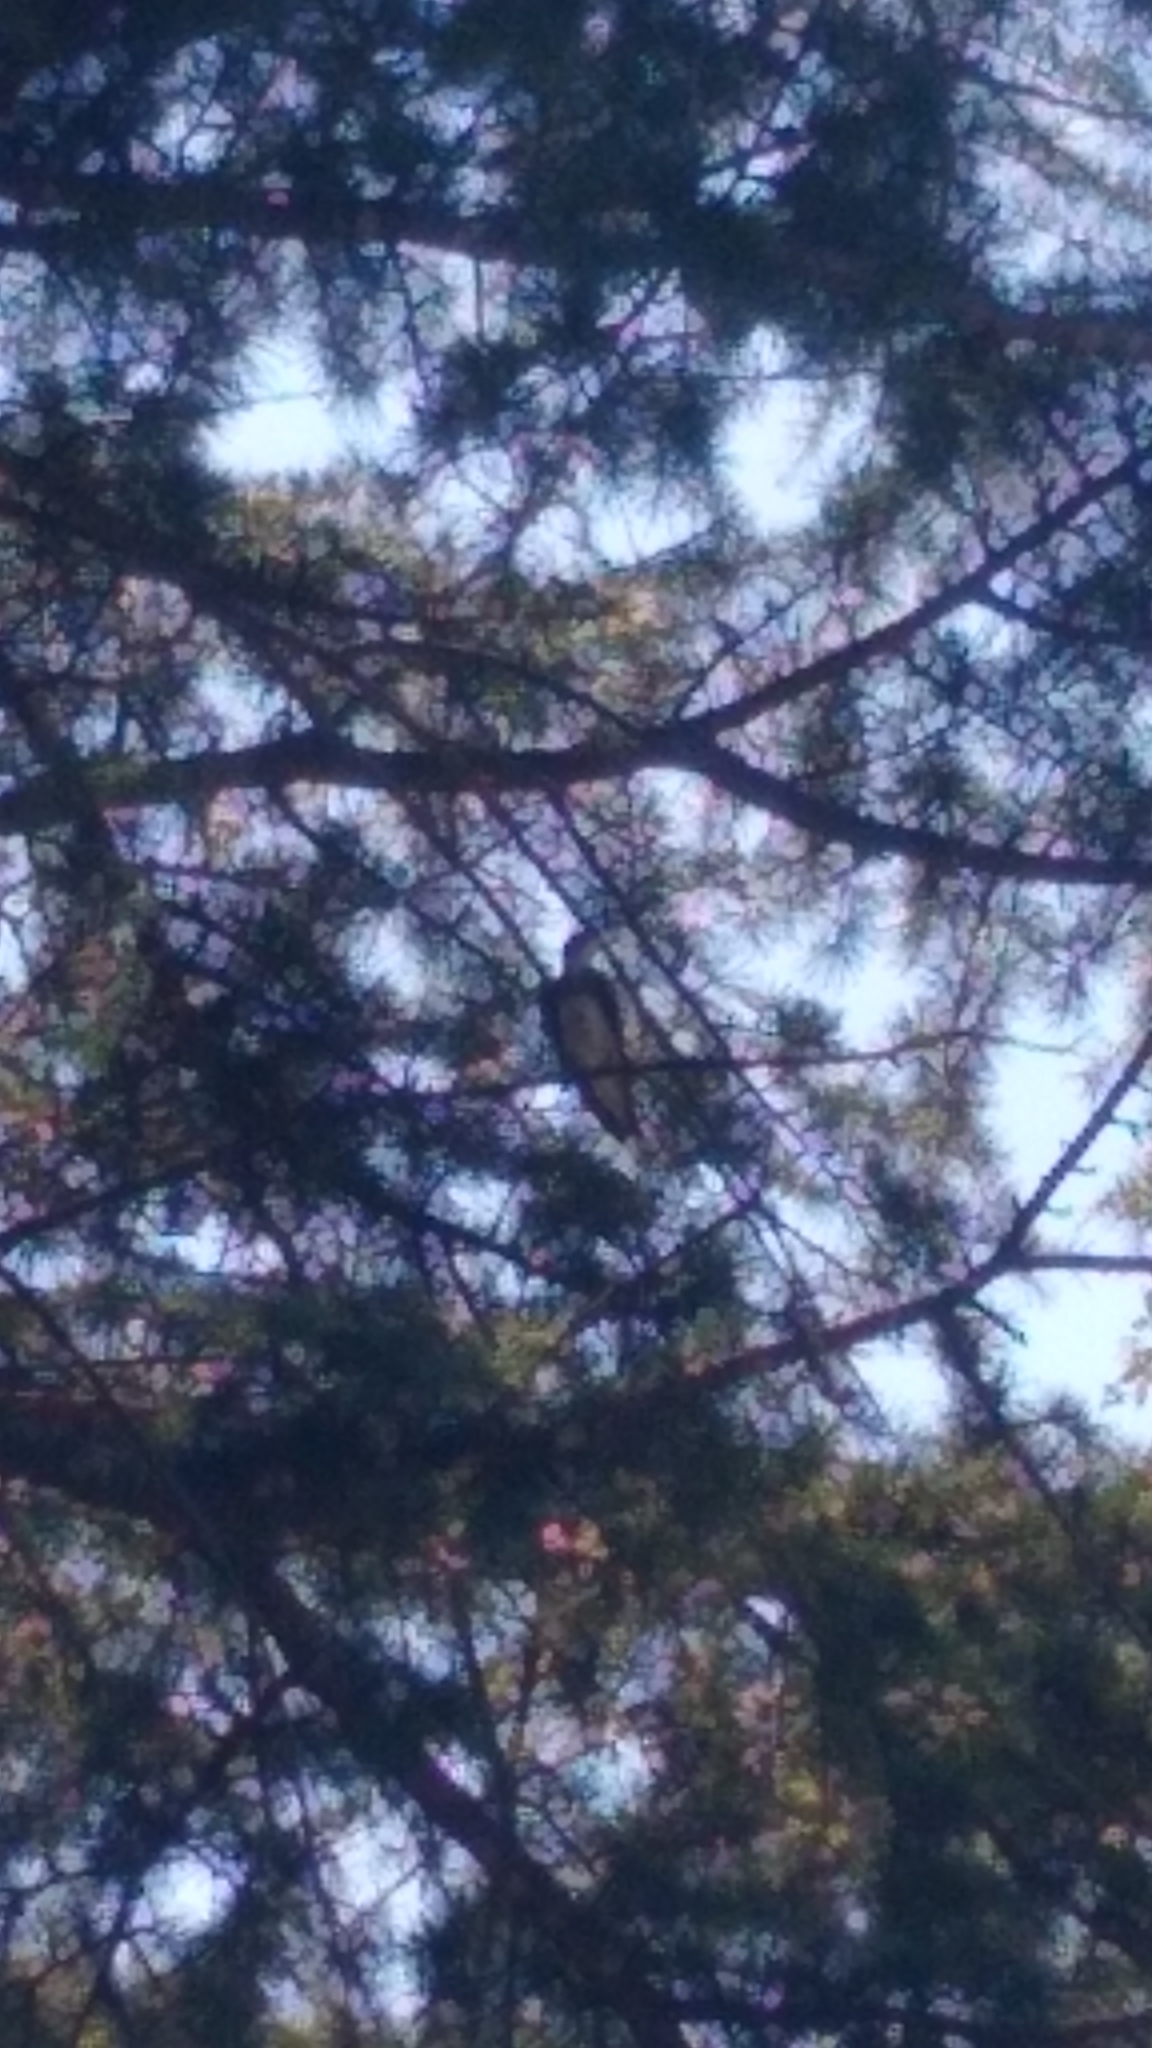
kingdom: Animalia
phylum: Chordata
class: Aves
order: Passeriformes
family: Hirundinidae
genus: Progne
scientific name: Progne tapera
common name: Brown-chested martin
